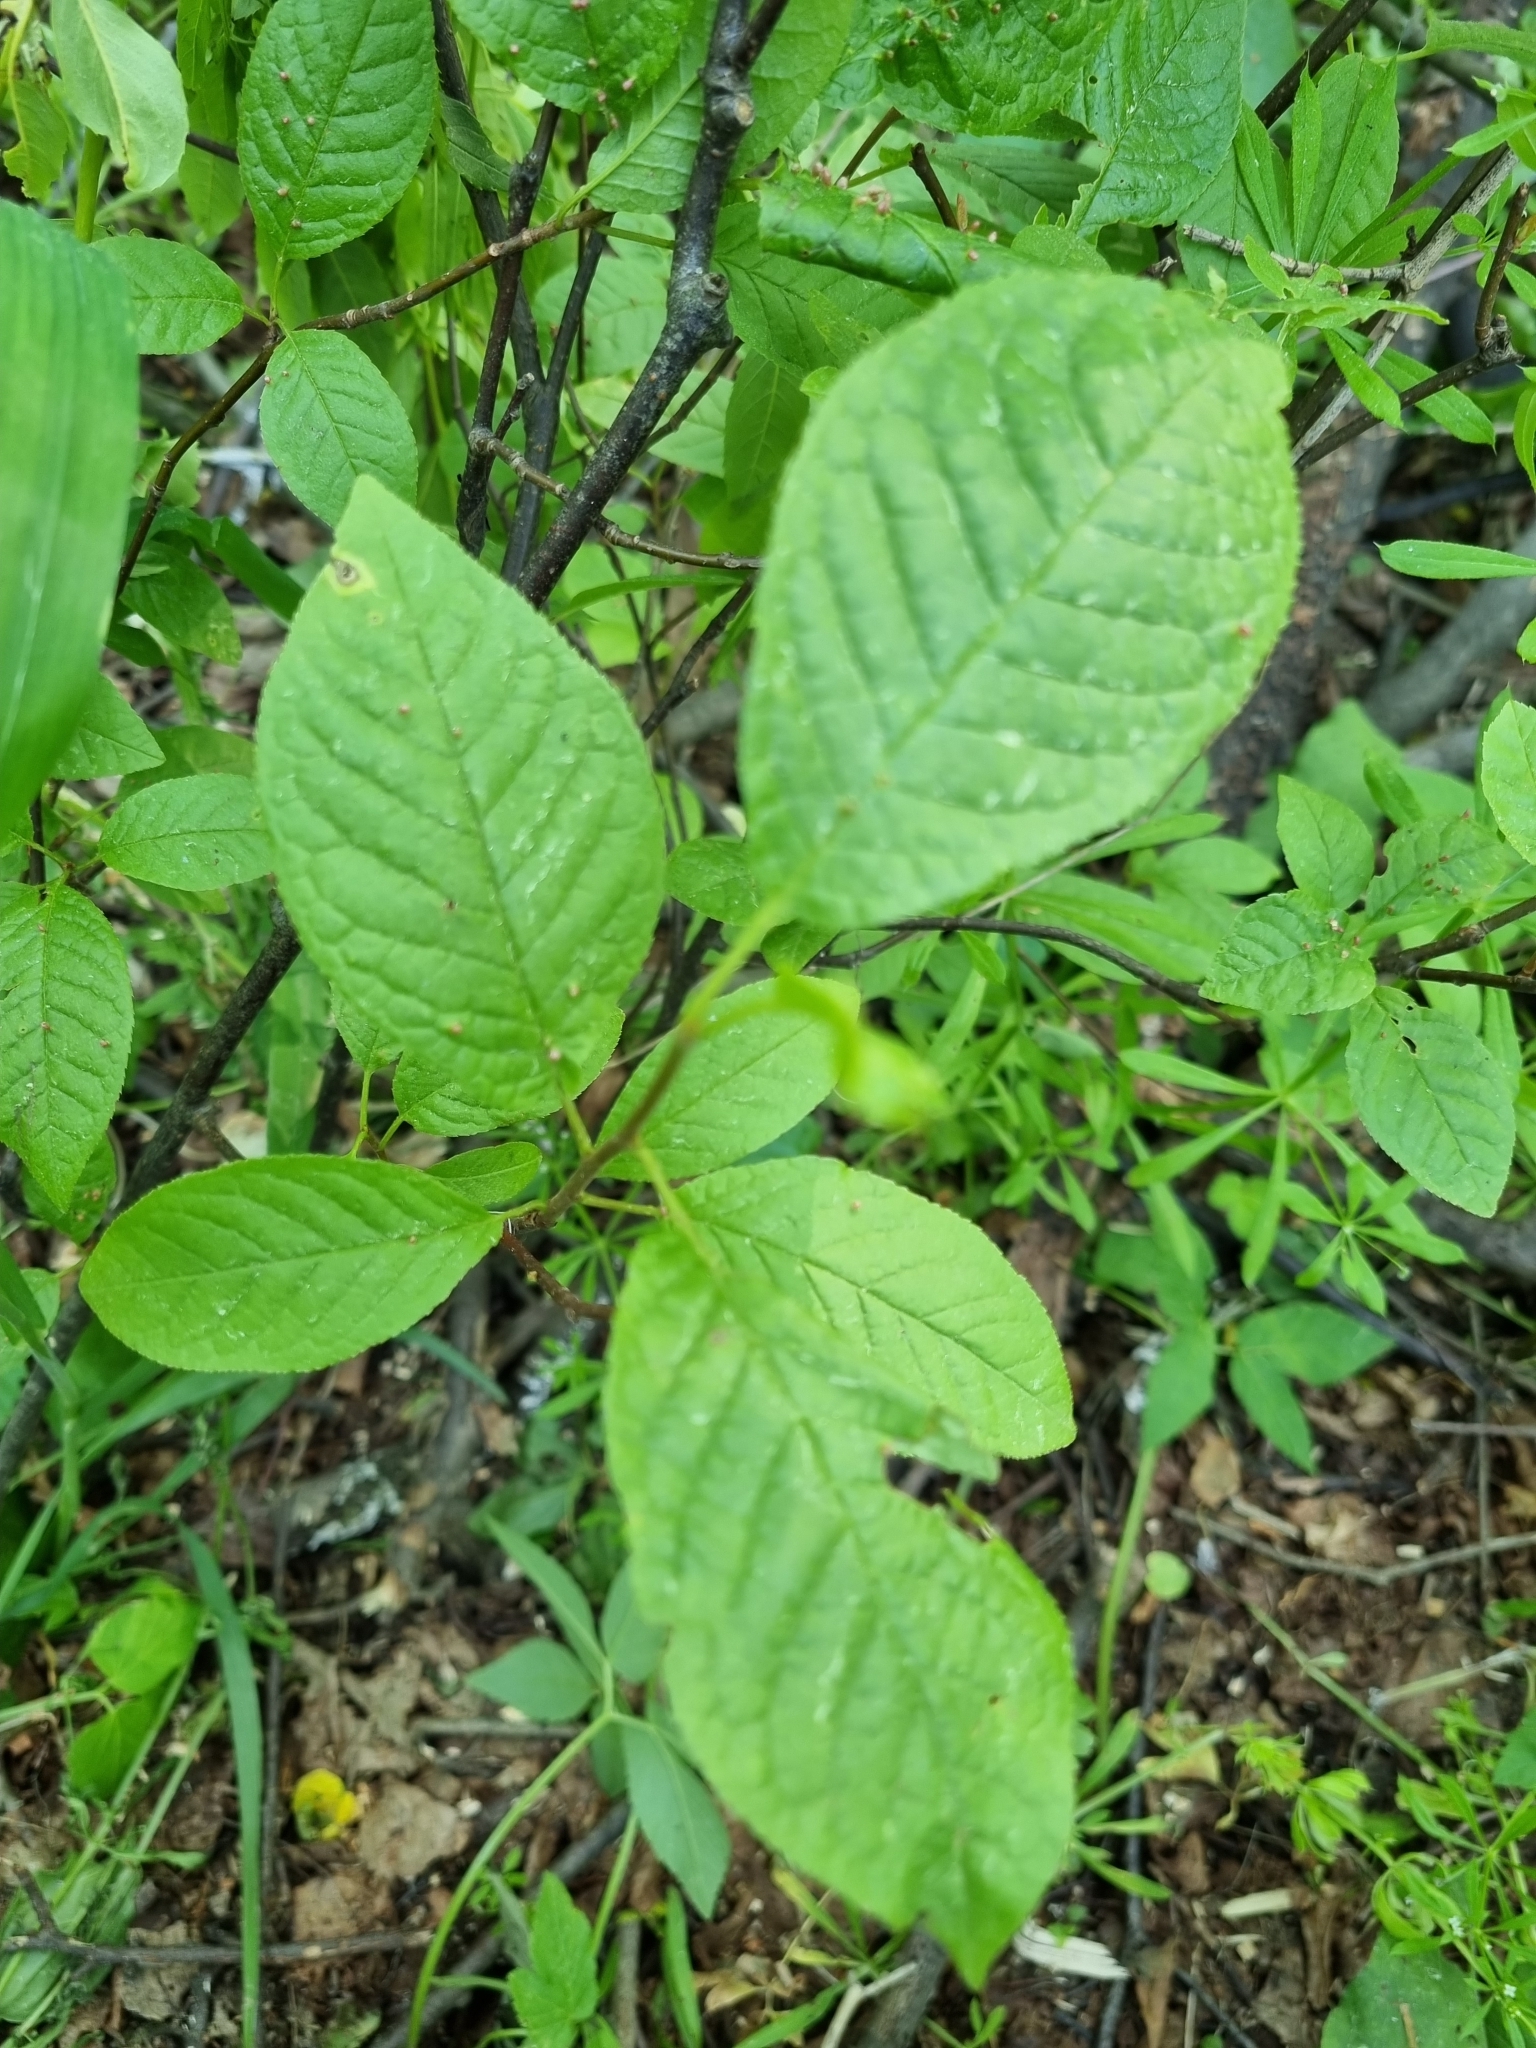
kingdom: Plantae
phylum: Tracheophyta
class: Magnoliopsida
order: Rosales
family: Rosaceae
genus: Prunus
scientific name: Prunus padus
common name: Bird cherry
